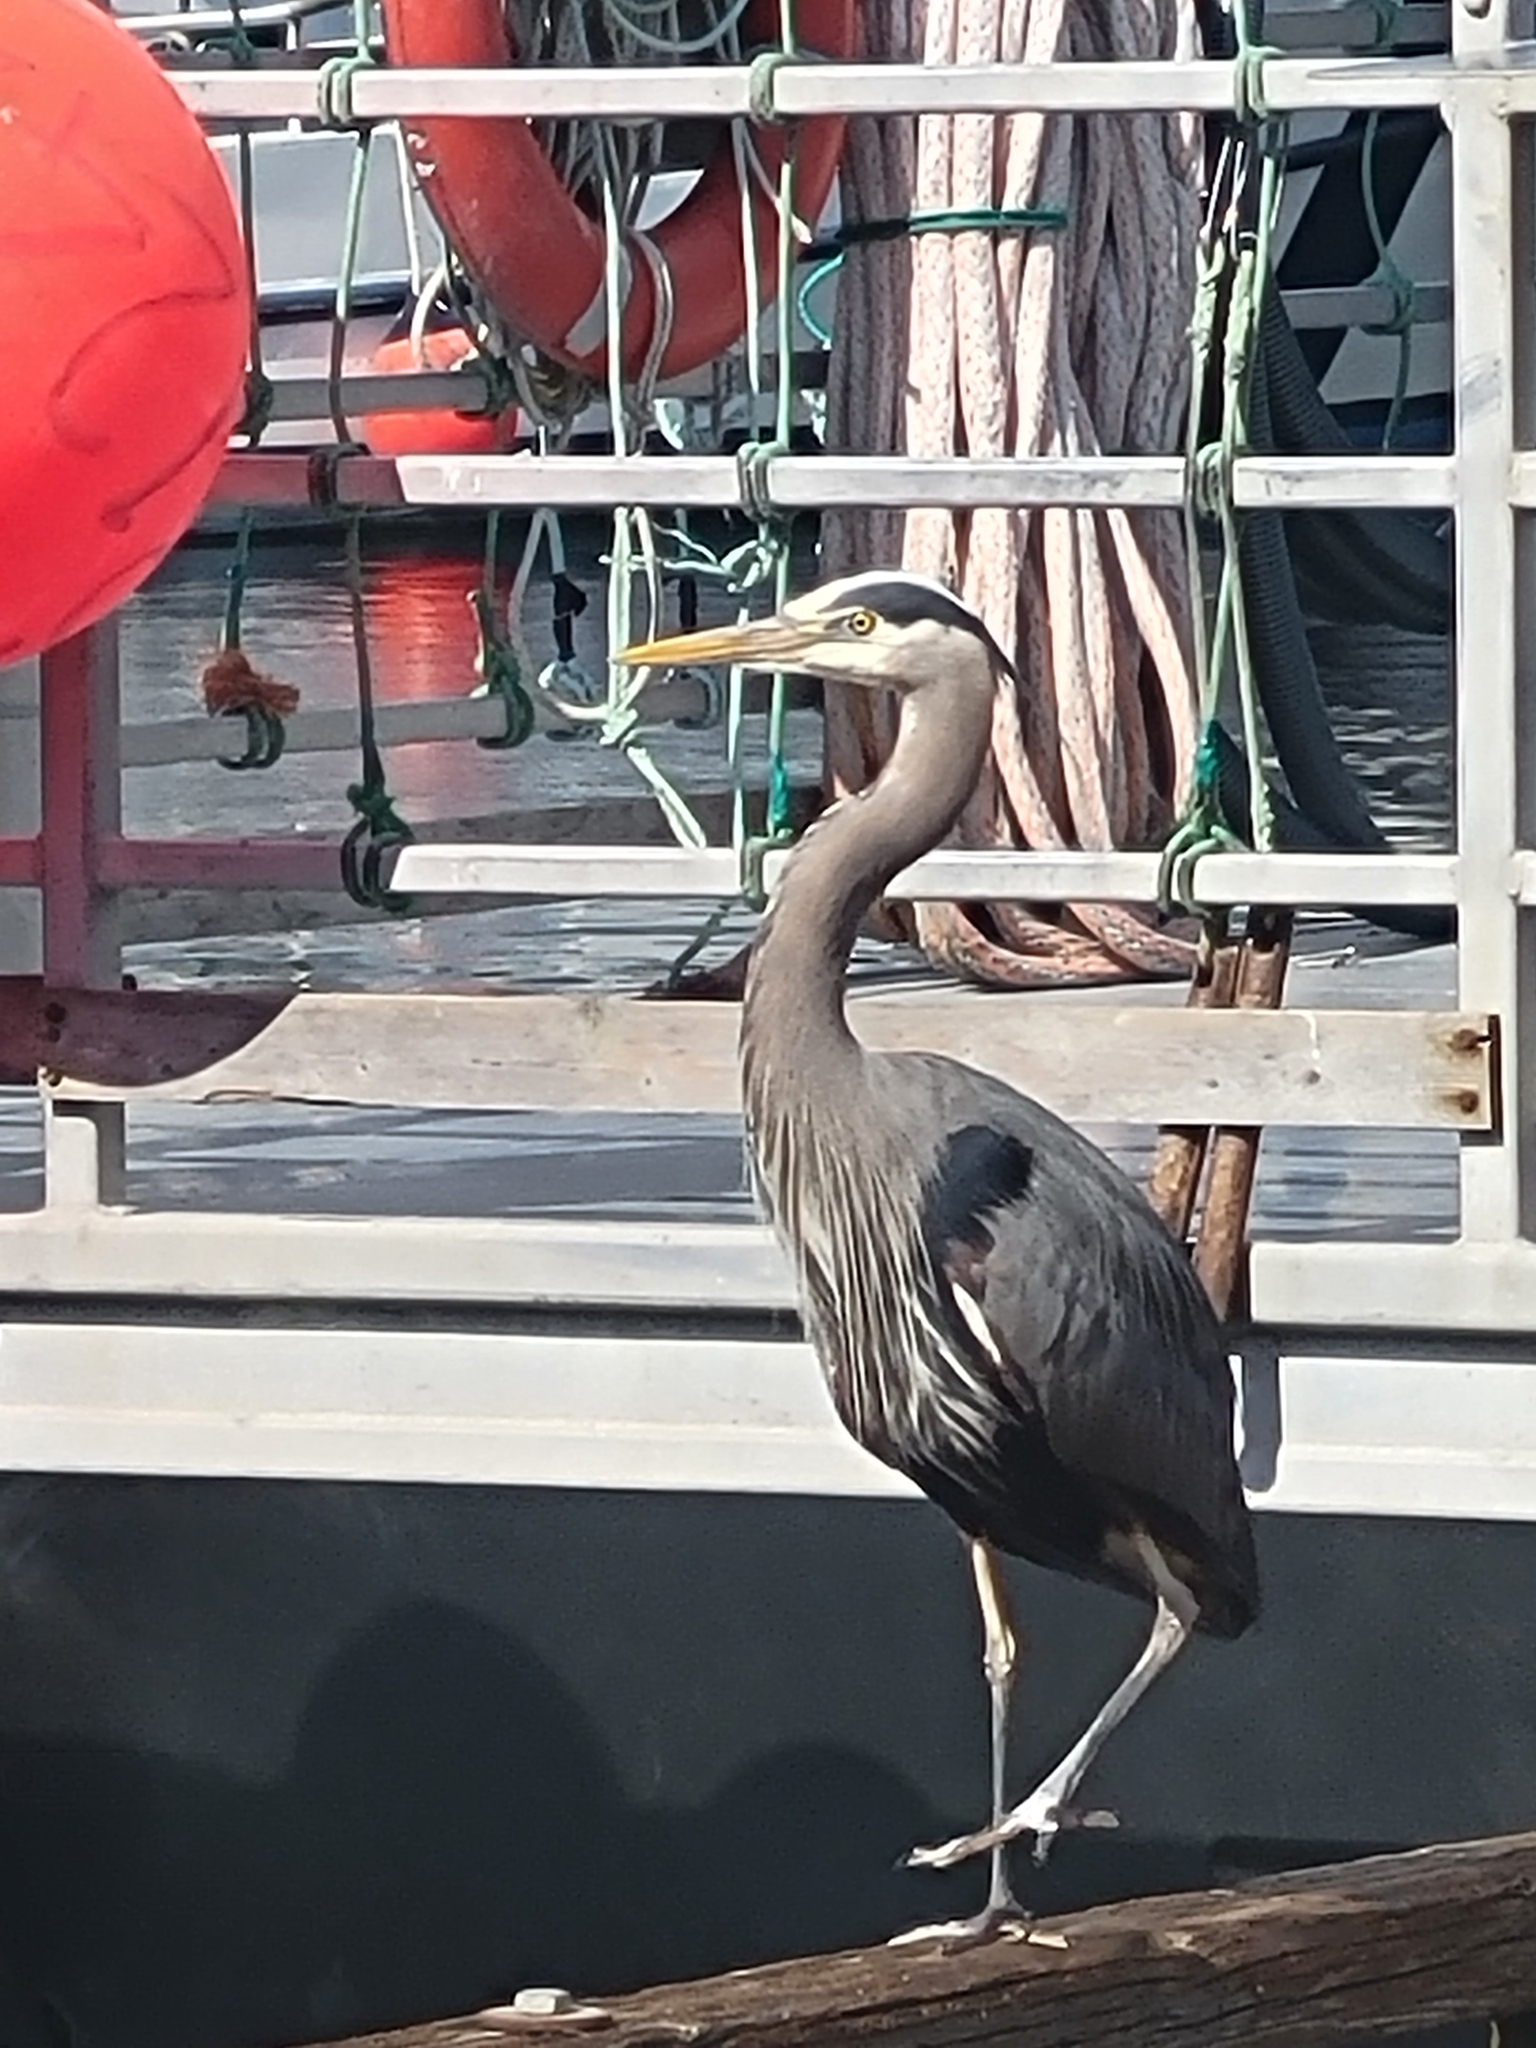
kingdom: Animalia
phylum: Chordata
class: Aves
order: Pelecaniformes
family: Ardeidae
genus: Ardea
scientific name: Ardea herodias
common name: Great blue heron
